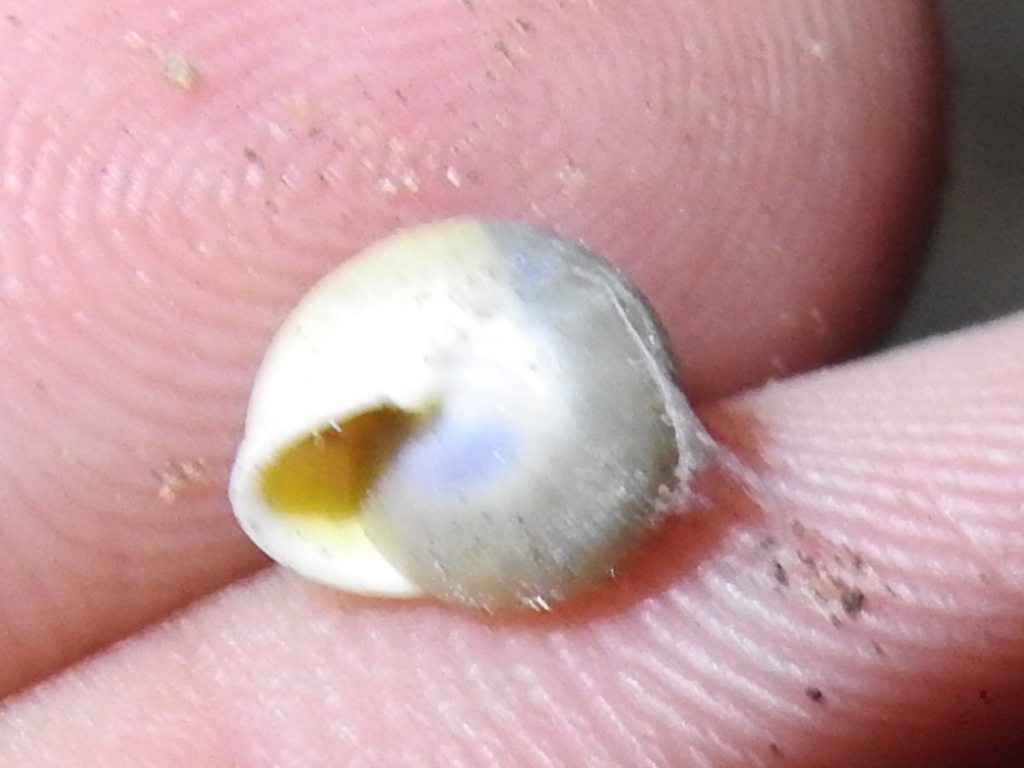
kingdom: Animalia
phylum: Mollusca
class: Gastropoda
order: Cycloneritida
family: Helicinidae
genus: Helicina
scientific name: Helicina orbiculata
